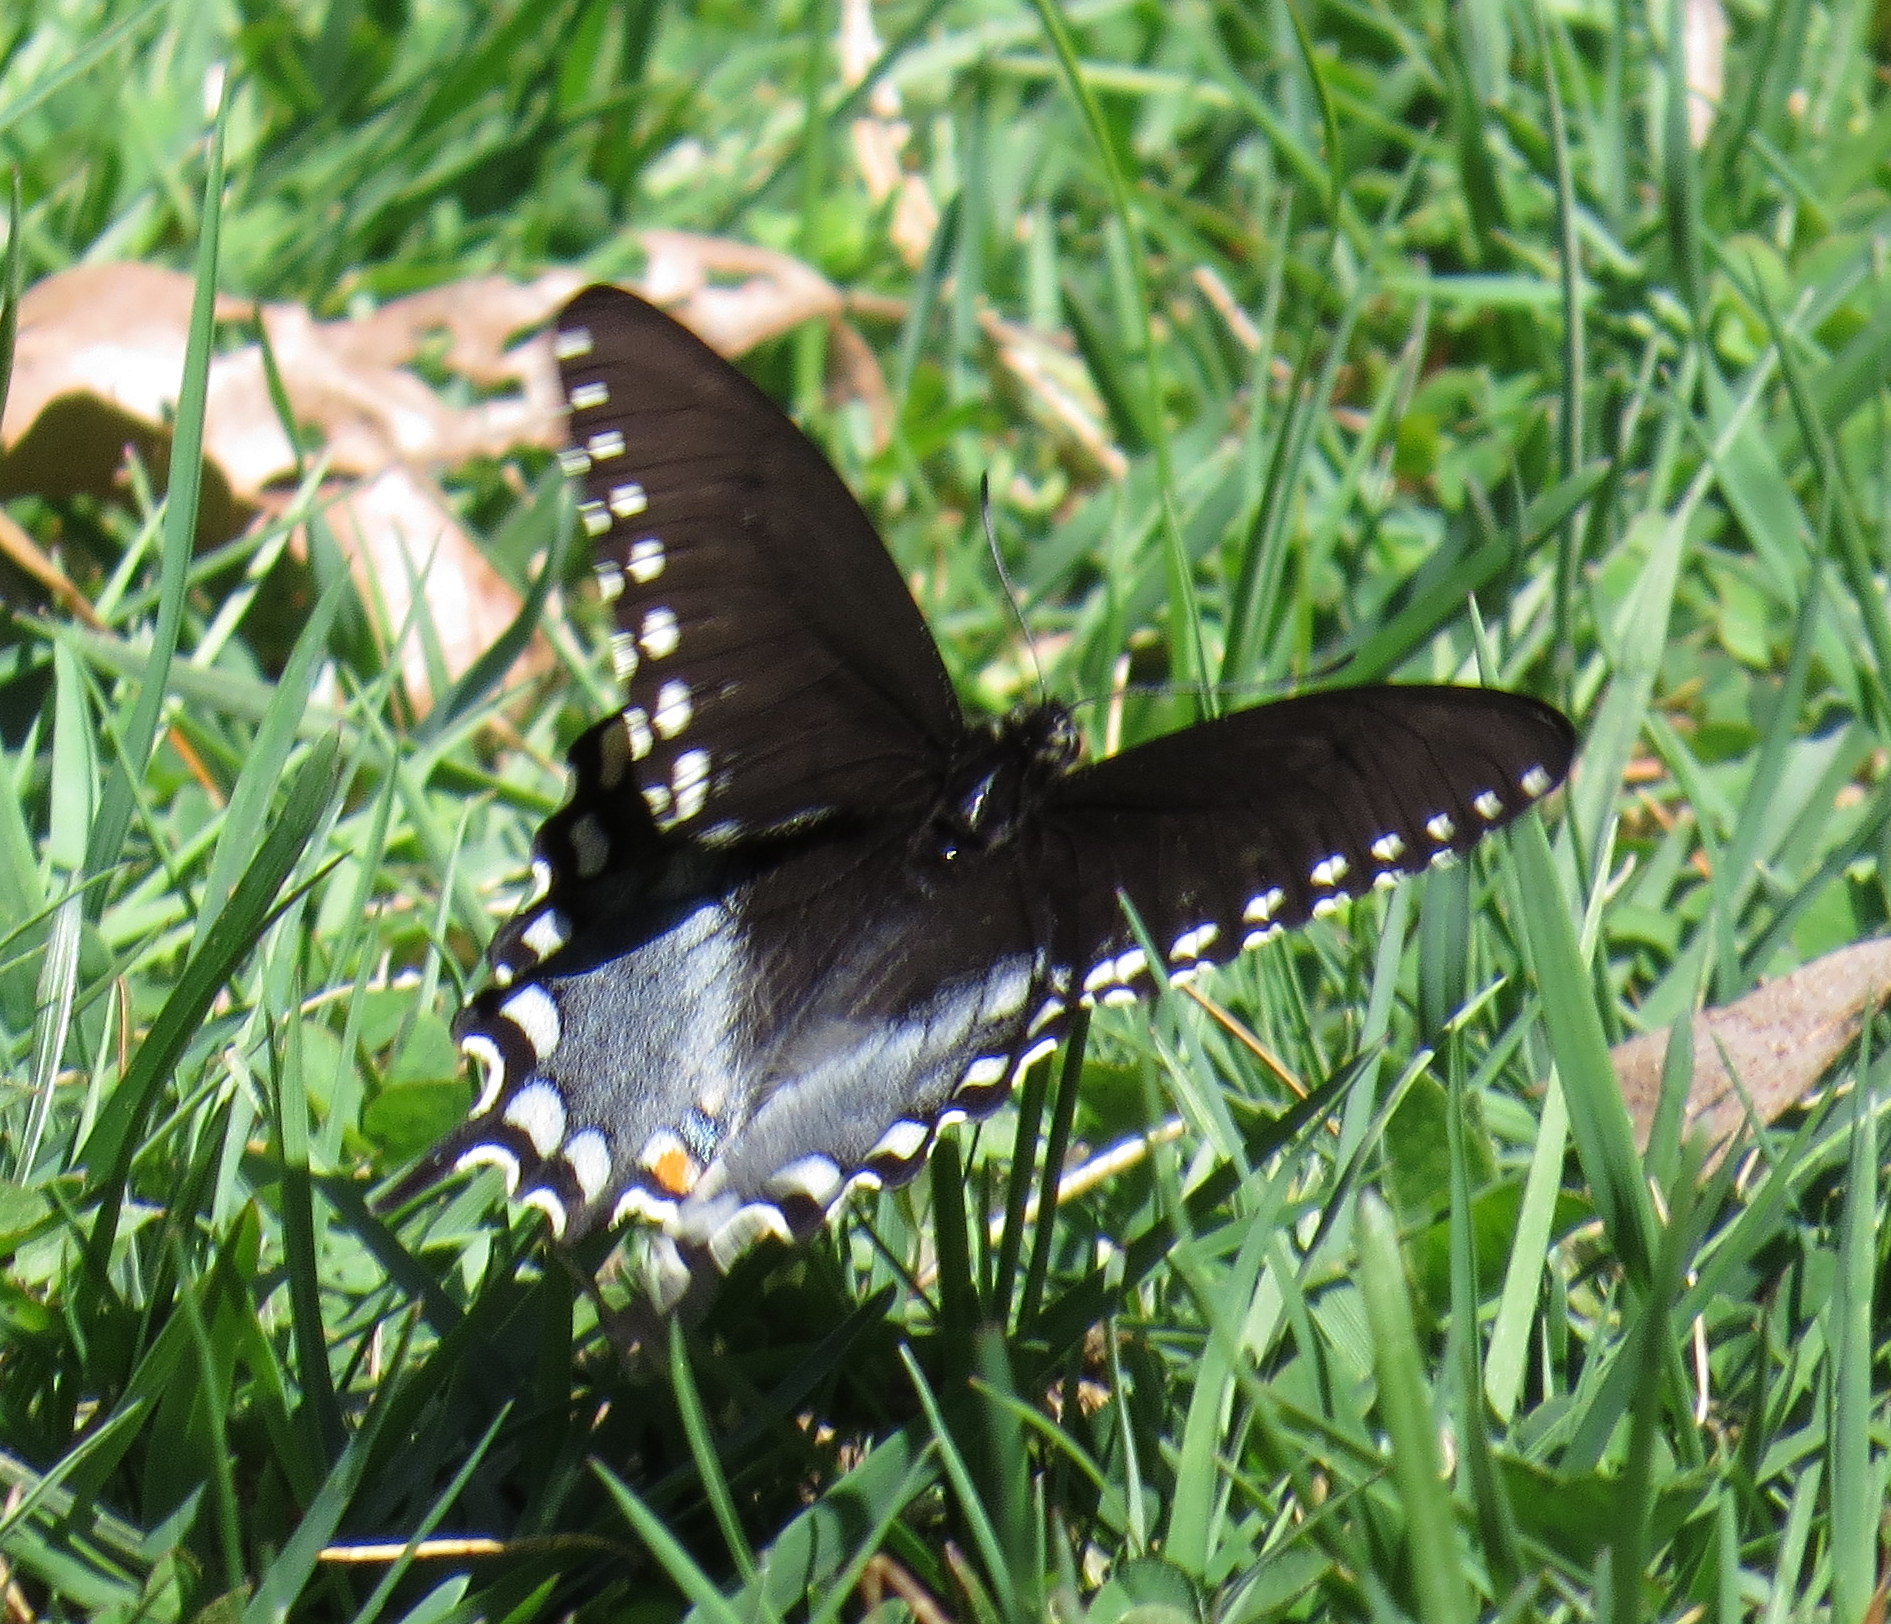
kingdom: Animalia
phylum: Arthropoda
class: Insecta
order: Lepidoptera
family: Papilionidae
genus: Papilio
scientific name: Papilio troilus
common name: Spicebush swallowtail
